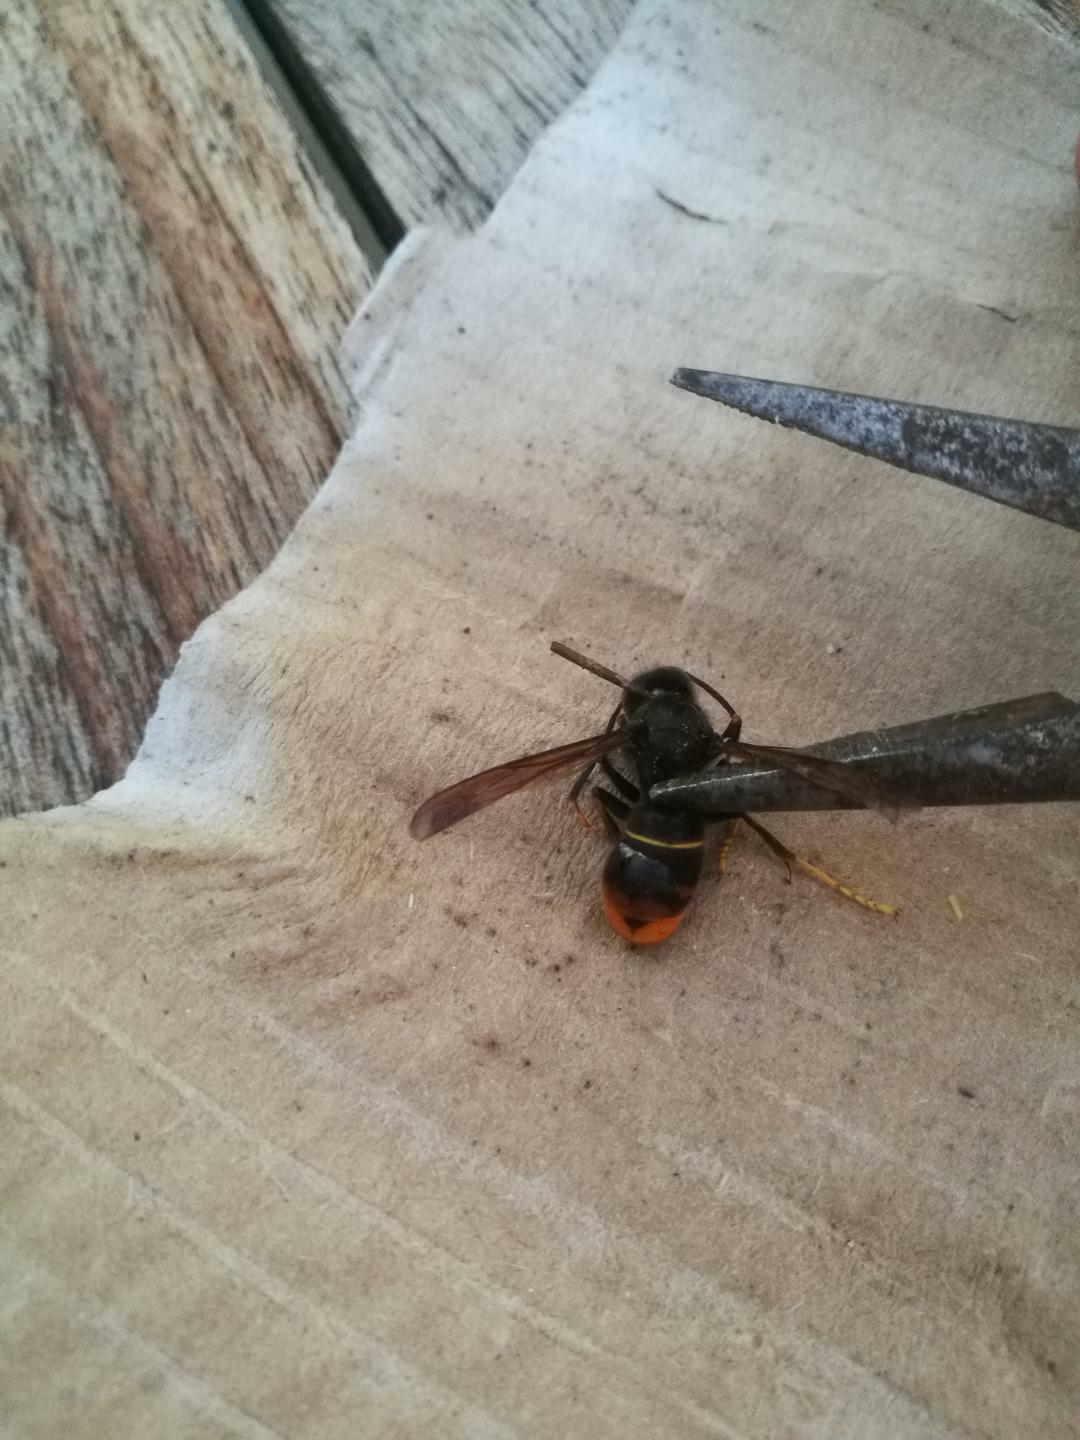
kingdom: Animalia
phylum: Arthropoda
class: Insecta
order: Hymenoptera
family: Vespidae
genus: Vespa
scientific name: Vespa velutina
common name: Asian hornet
